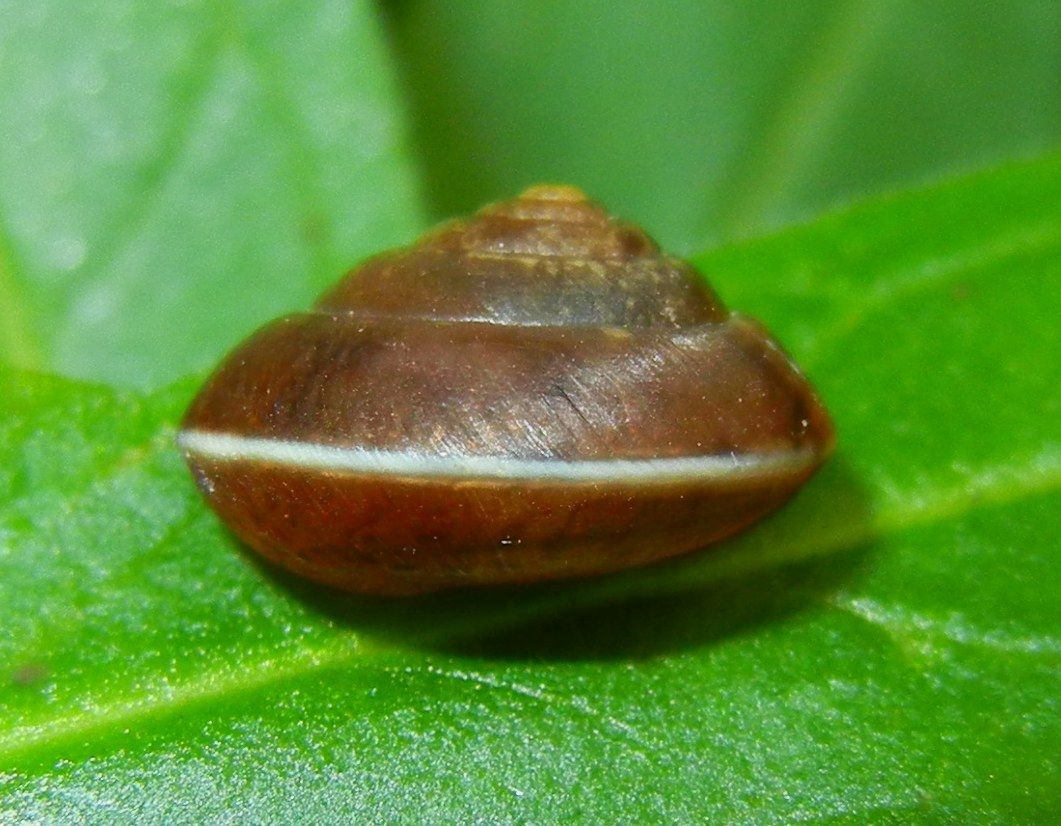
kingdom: Animalia
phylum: Mollusca
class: Gastropoda
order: Stylommatophora
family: Hygromiidae
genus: Hygromia
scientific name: Hygromia cinctella
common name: Girdled snail
